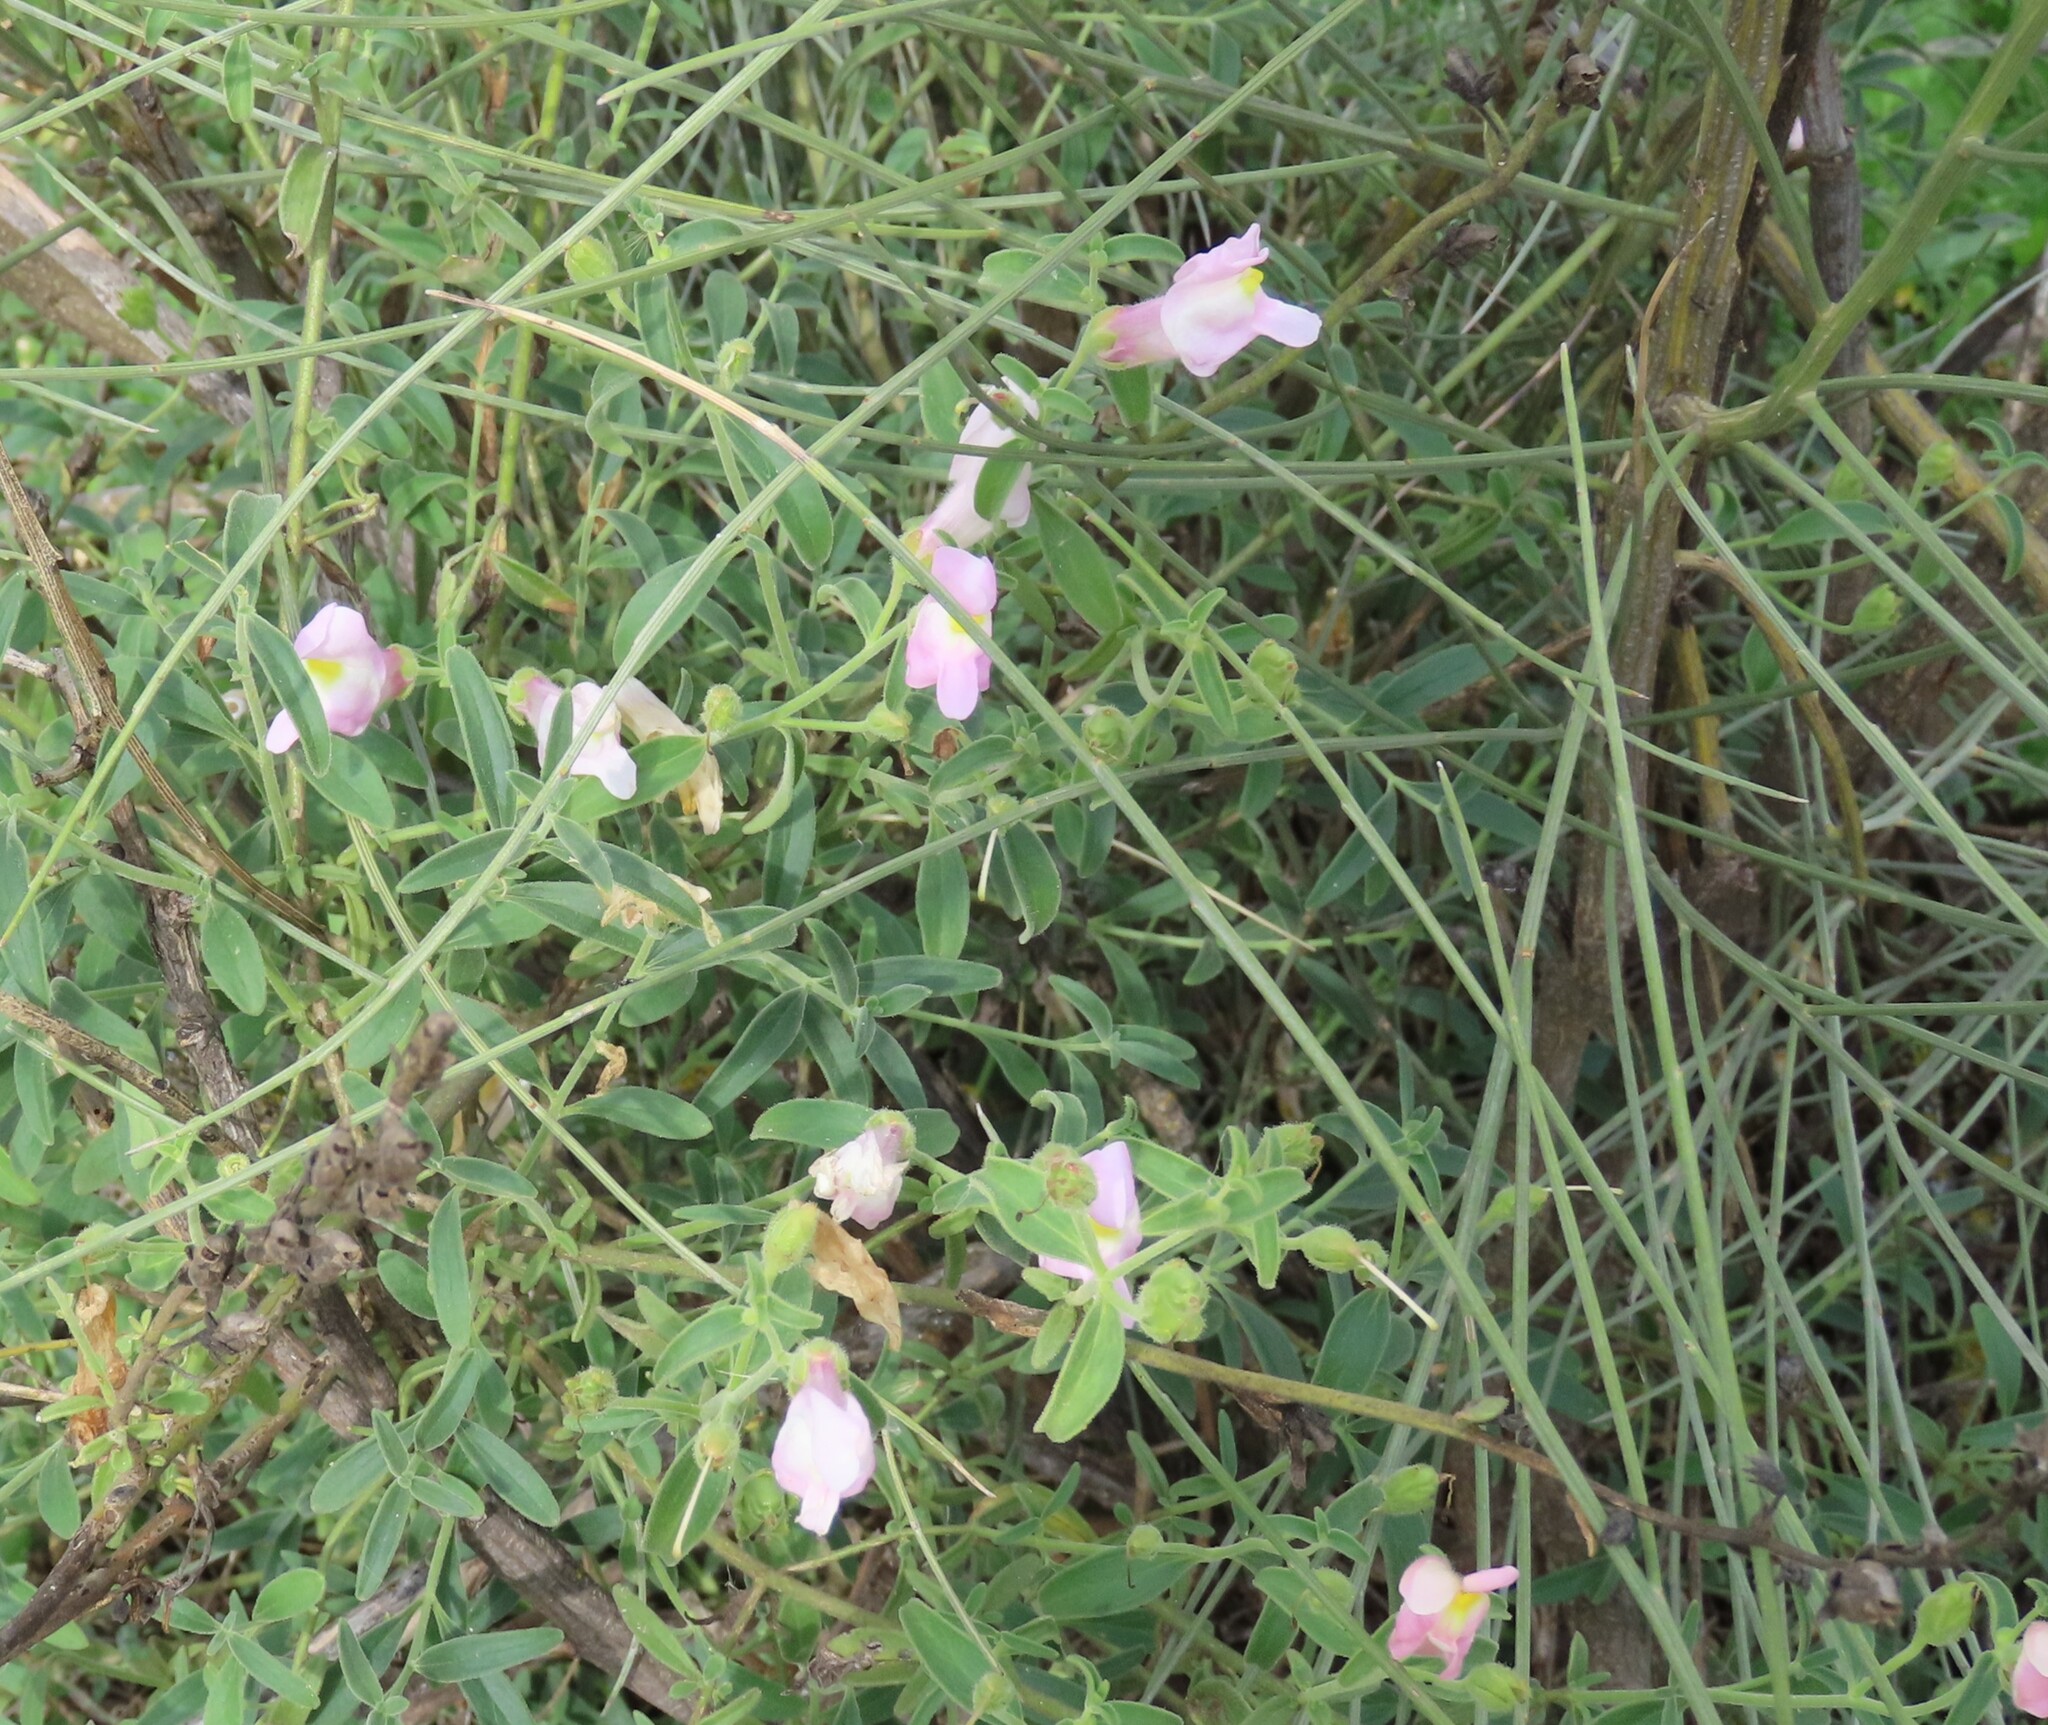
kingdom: Plantae
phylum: Tracheophyta
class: Magnoliopsida
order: Lamiales
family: Plantaginaceae
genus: Antirrhinum
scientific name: Antirrhinum graniticum
